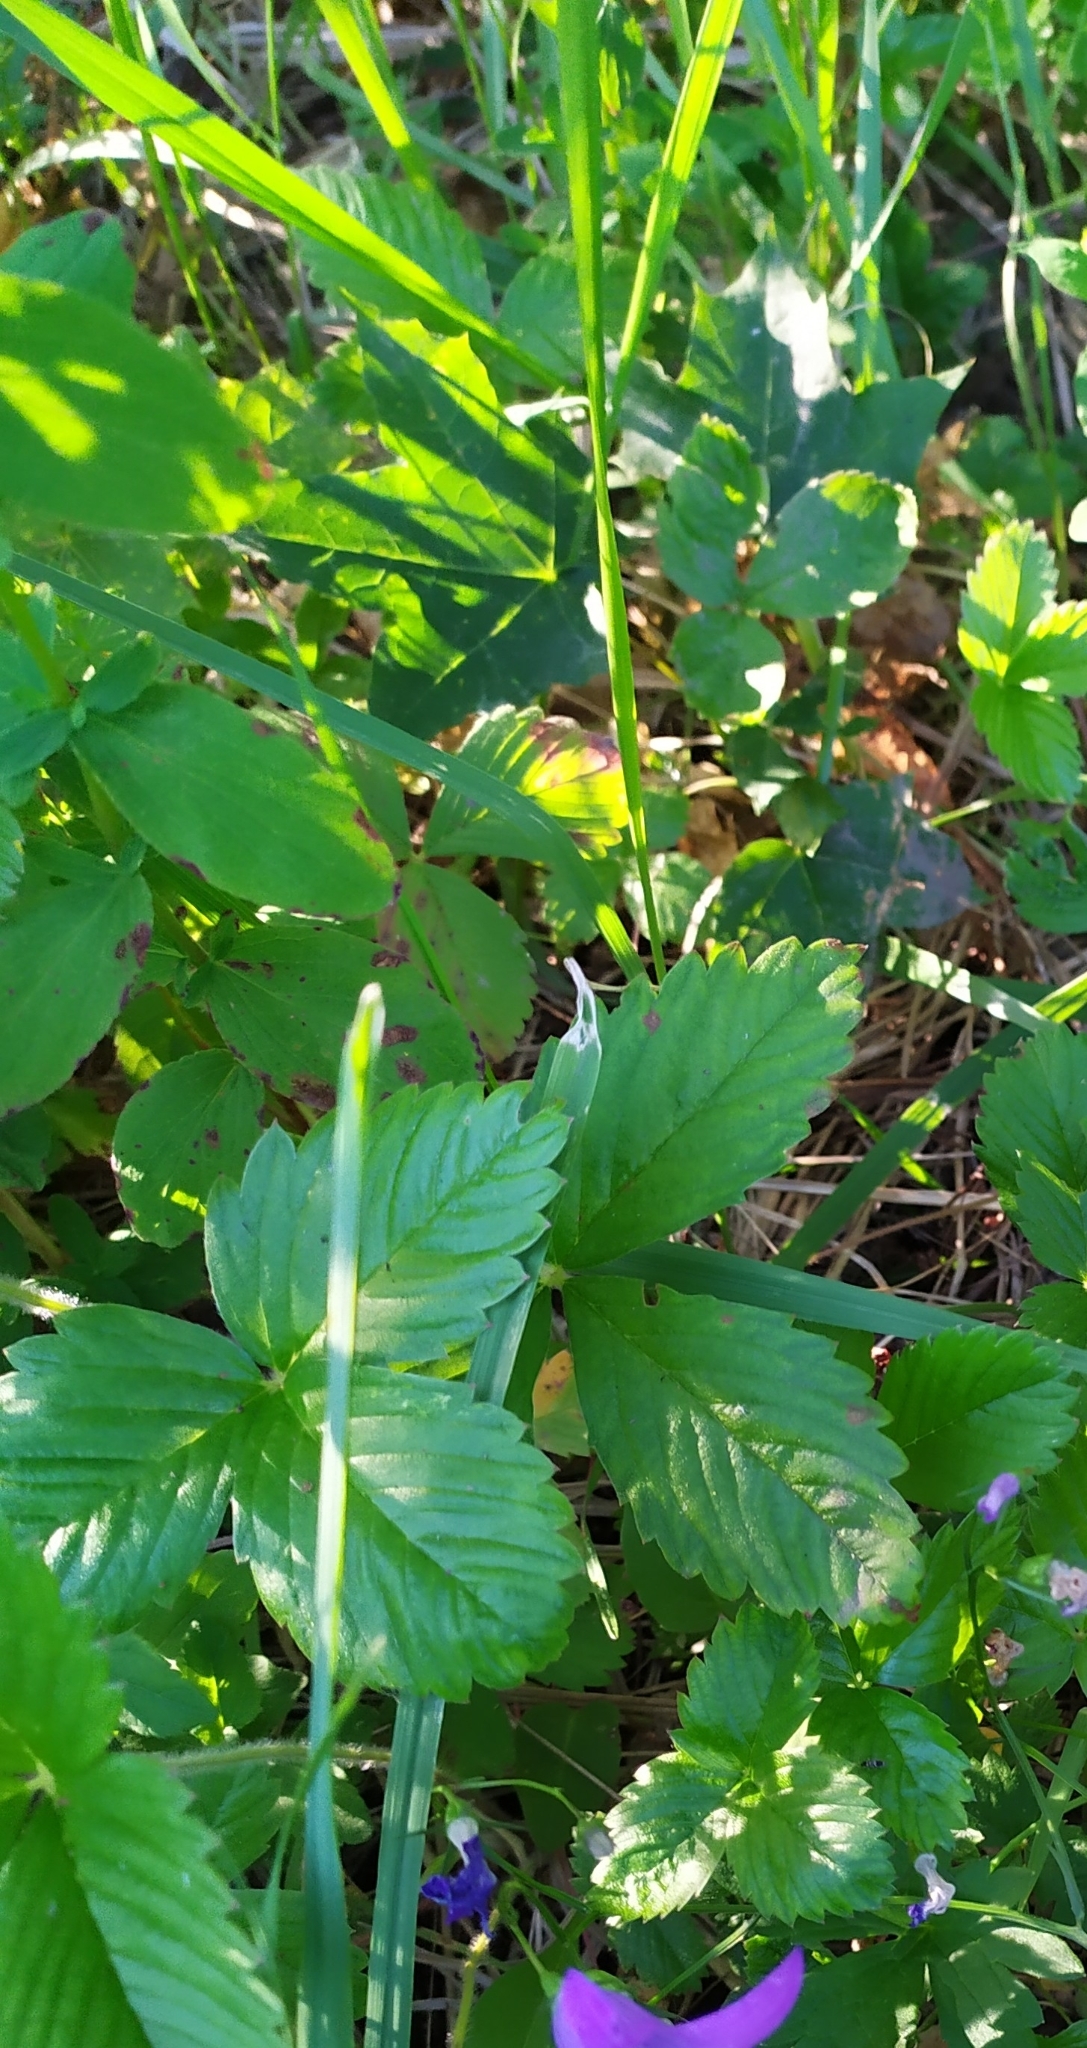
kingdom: Plantae
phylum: Tracheophyta
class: Magnoliopsida
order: Rosales
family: Rosaceae
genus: Fragaria
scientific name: Fragaria vesca
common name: Wild strawberry
